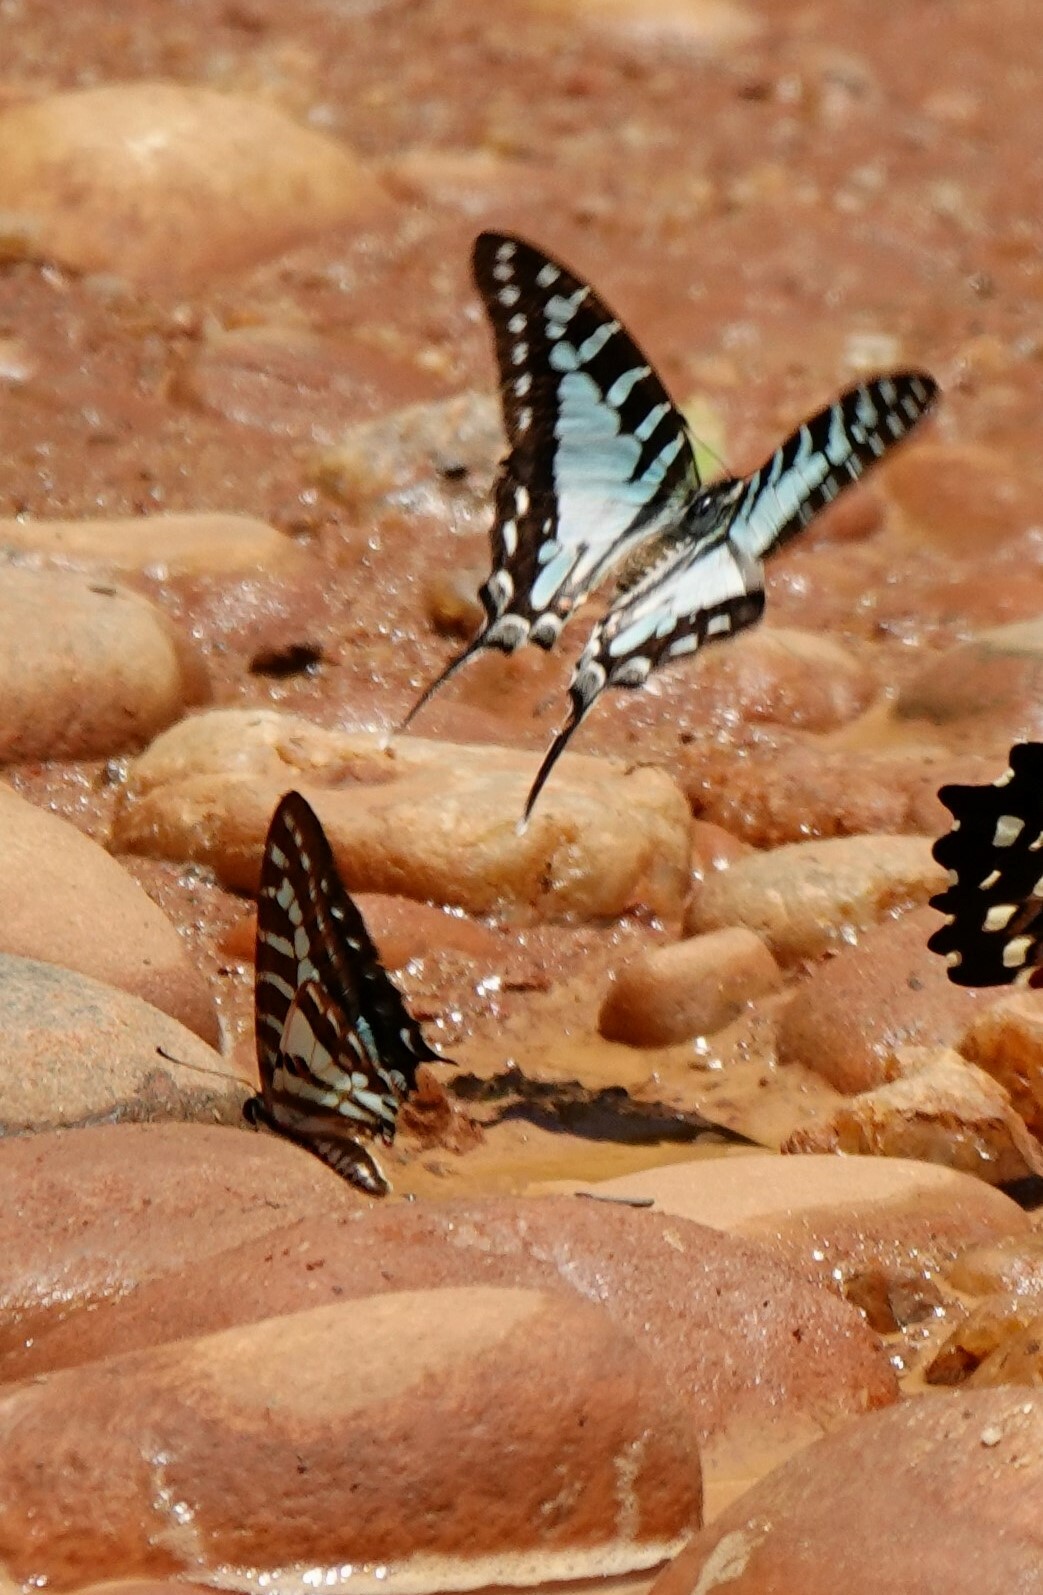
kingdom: Animalia
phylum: Arthropoda
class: Insecta
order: Lepidoptera
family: Papilionidae
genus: Graphium
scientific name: Graphium evombar
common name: Madagascan striped swordtail
